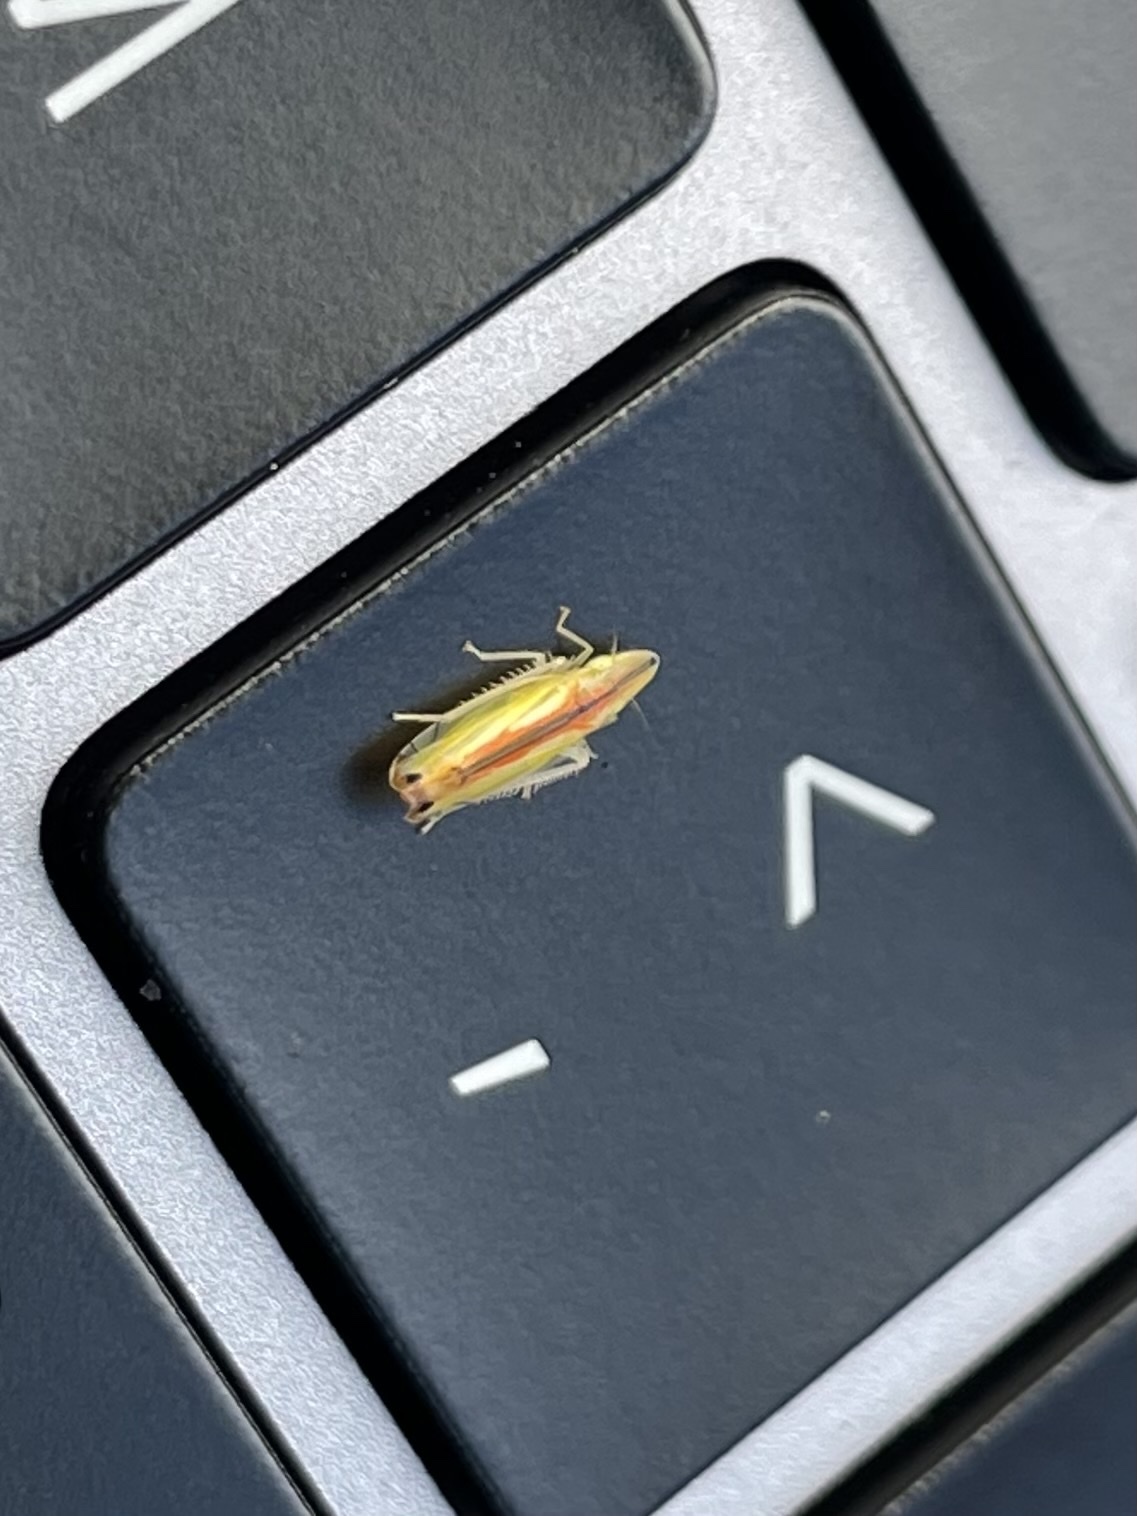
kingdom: Animalia
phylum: Arthropoda
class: Insecta
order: Hemiptera
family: Cicadellidae
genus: Sophonia
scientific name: Sophonia orientalis
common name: Two-spotted leafhopper
